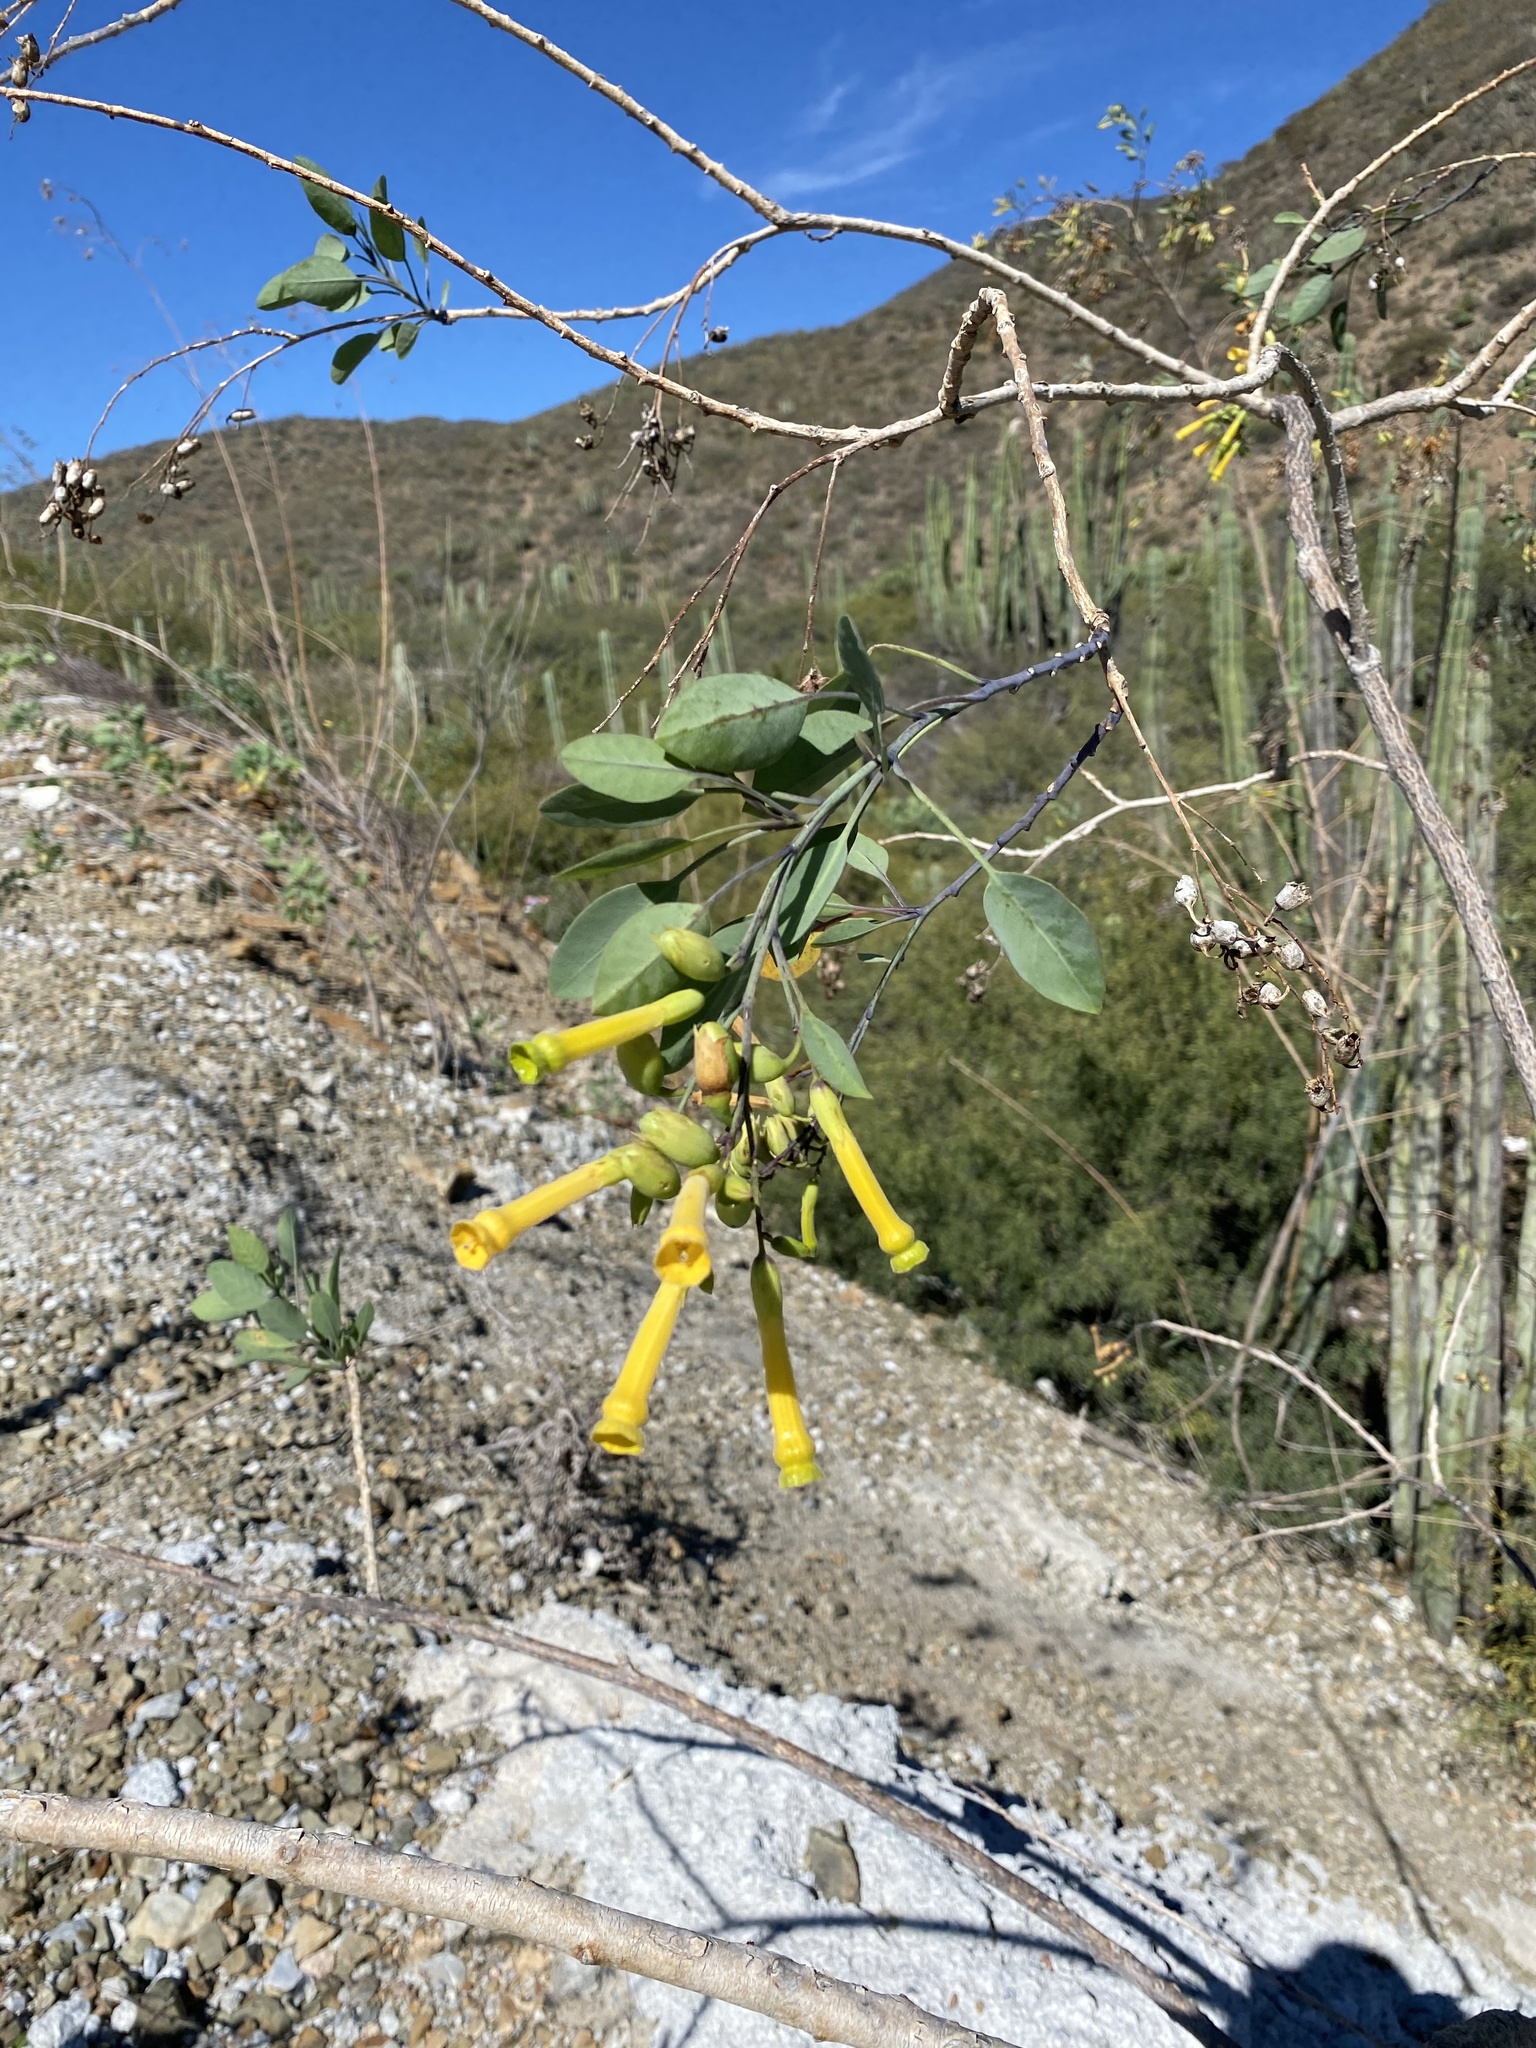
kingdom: Plantae
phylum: Tracheophyta
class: Magnoliopsida
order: Solanales
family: Solanaceae
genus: Nicotiana
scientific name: Nicotiana glauca
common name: Tree tobacco
